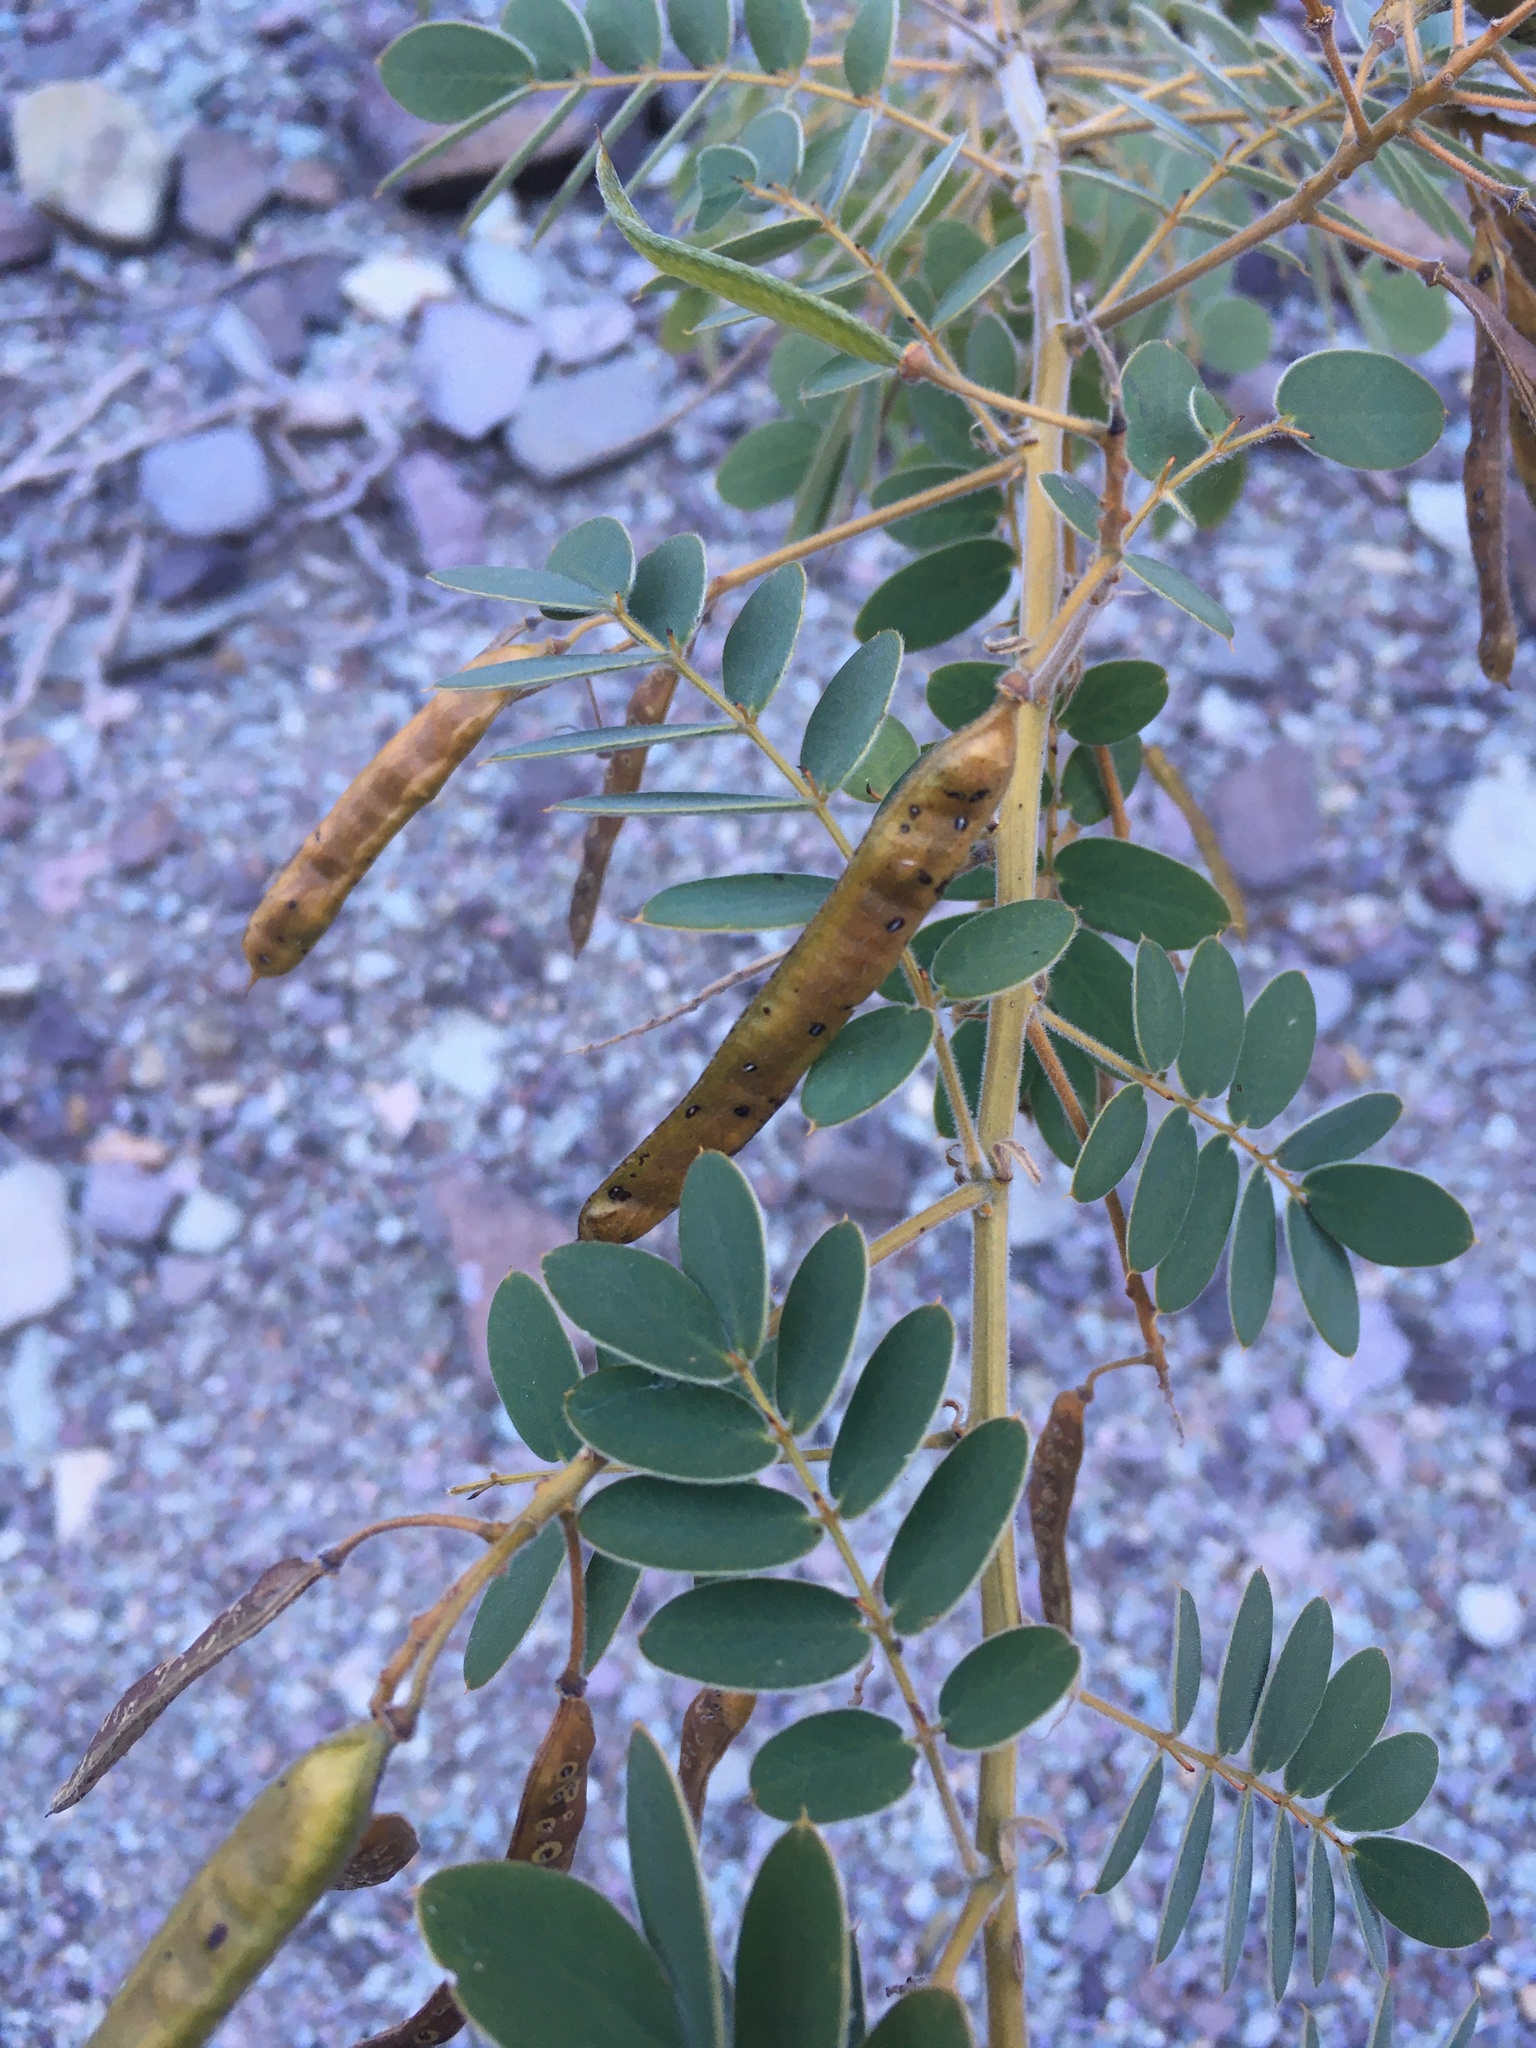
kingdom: Plantae
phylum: Tracheophyta
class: Magnoliopsida
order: Fabales
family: Fabaceae
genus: Senna
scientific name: Senna lindheimeriana
